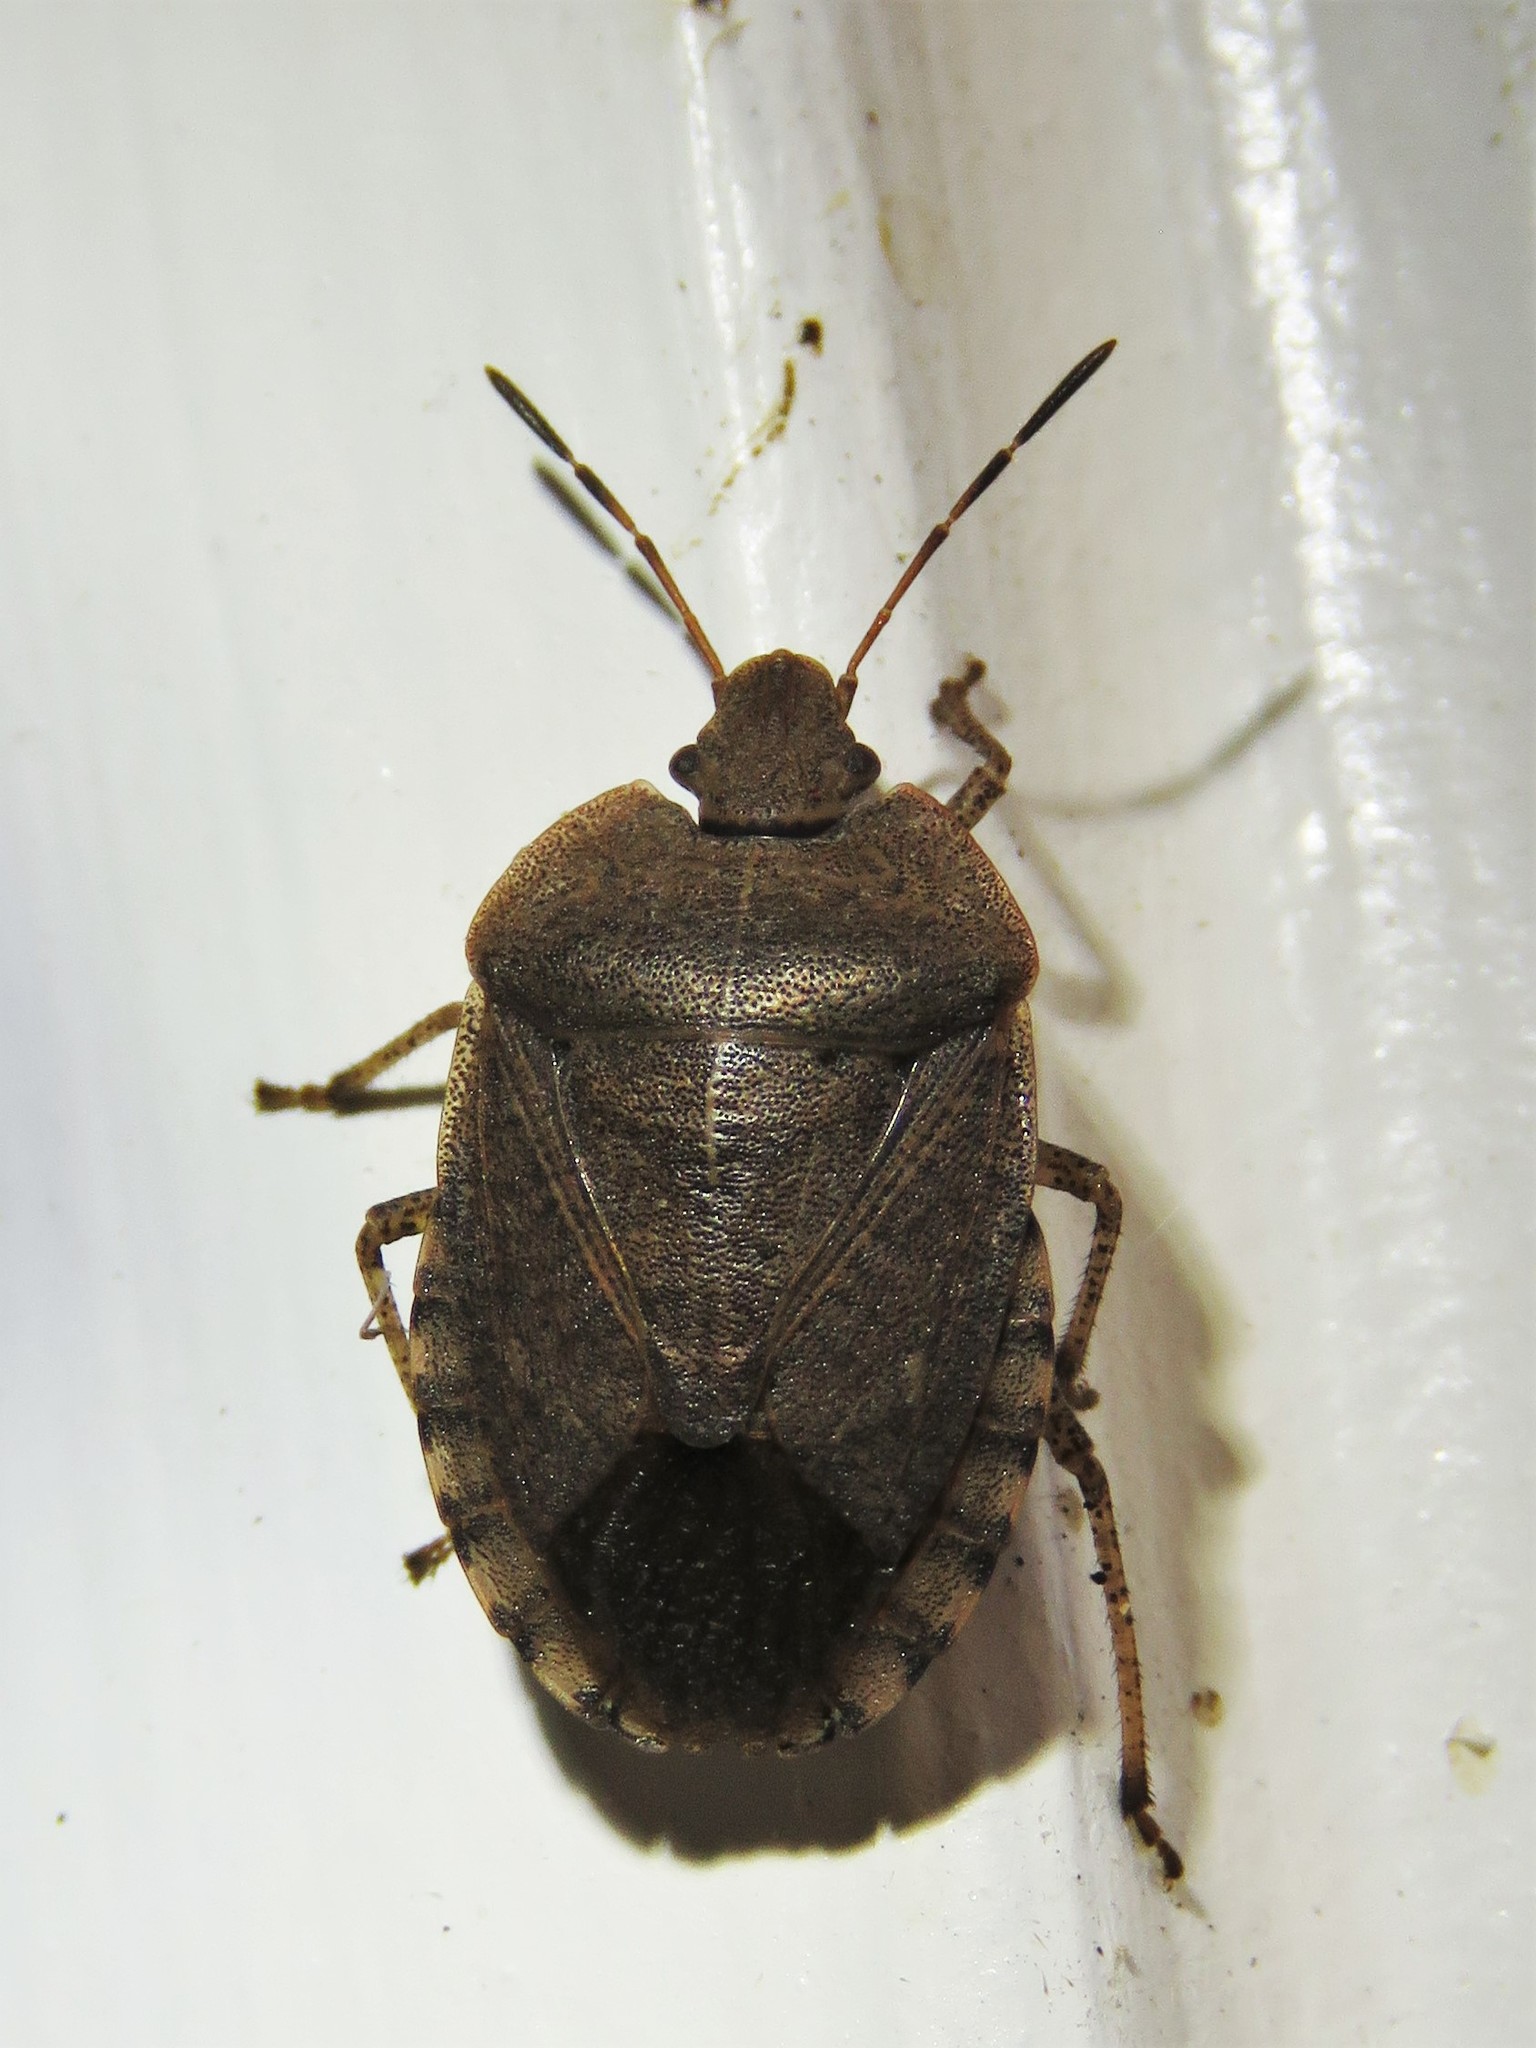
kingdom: Animalia
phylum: Arthropoda
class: Insecta
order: Hemiptera
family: Pentatomidae
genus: Menecles
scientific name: Menecles insertus
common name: Elf shoe stink bug
